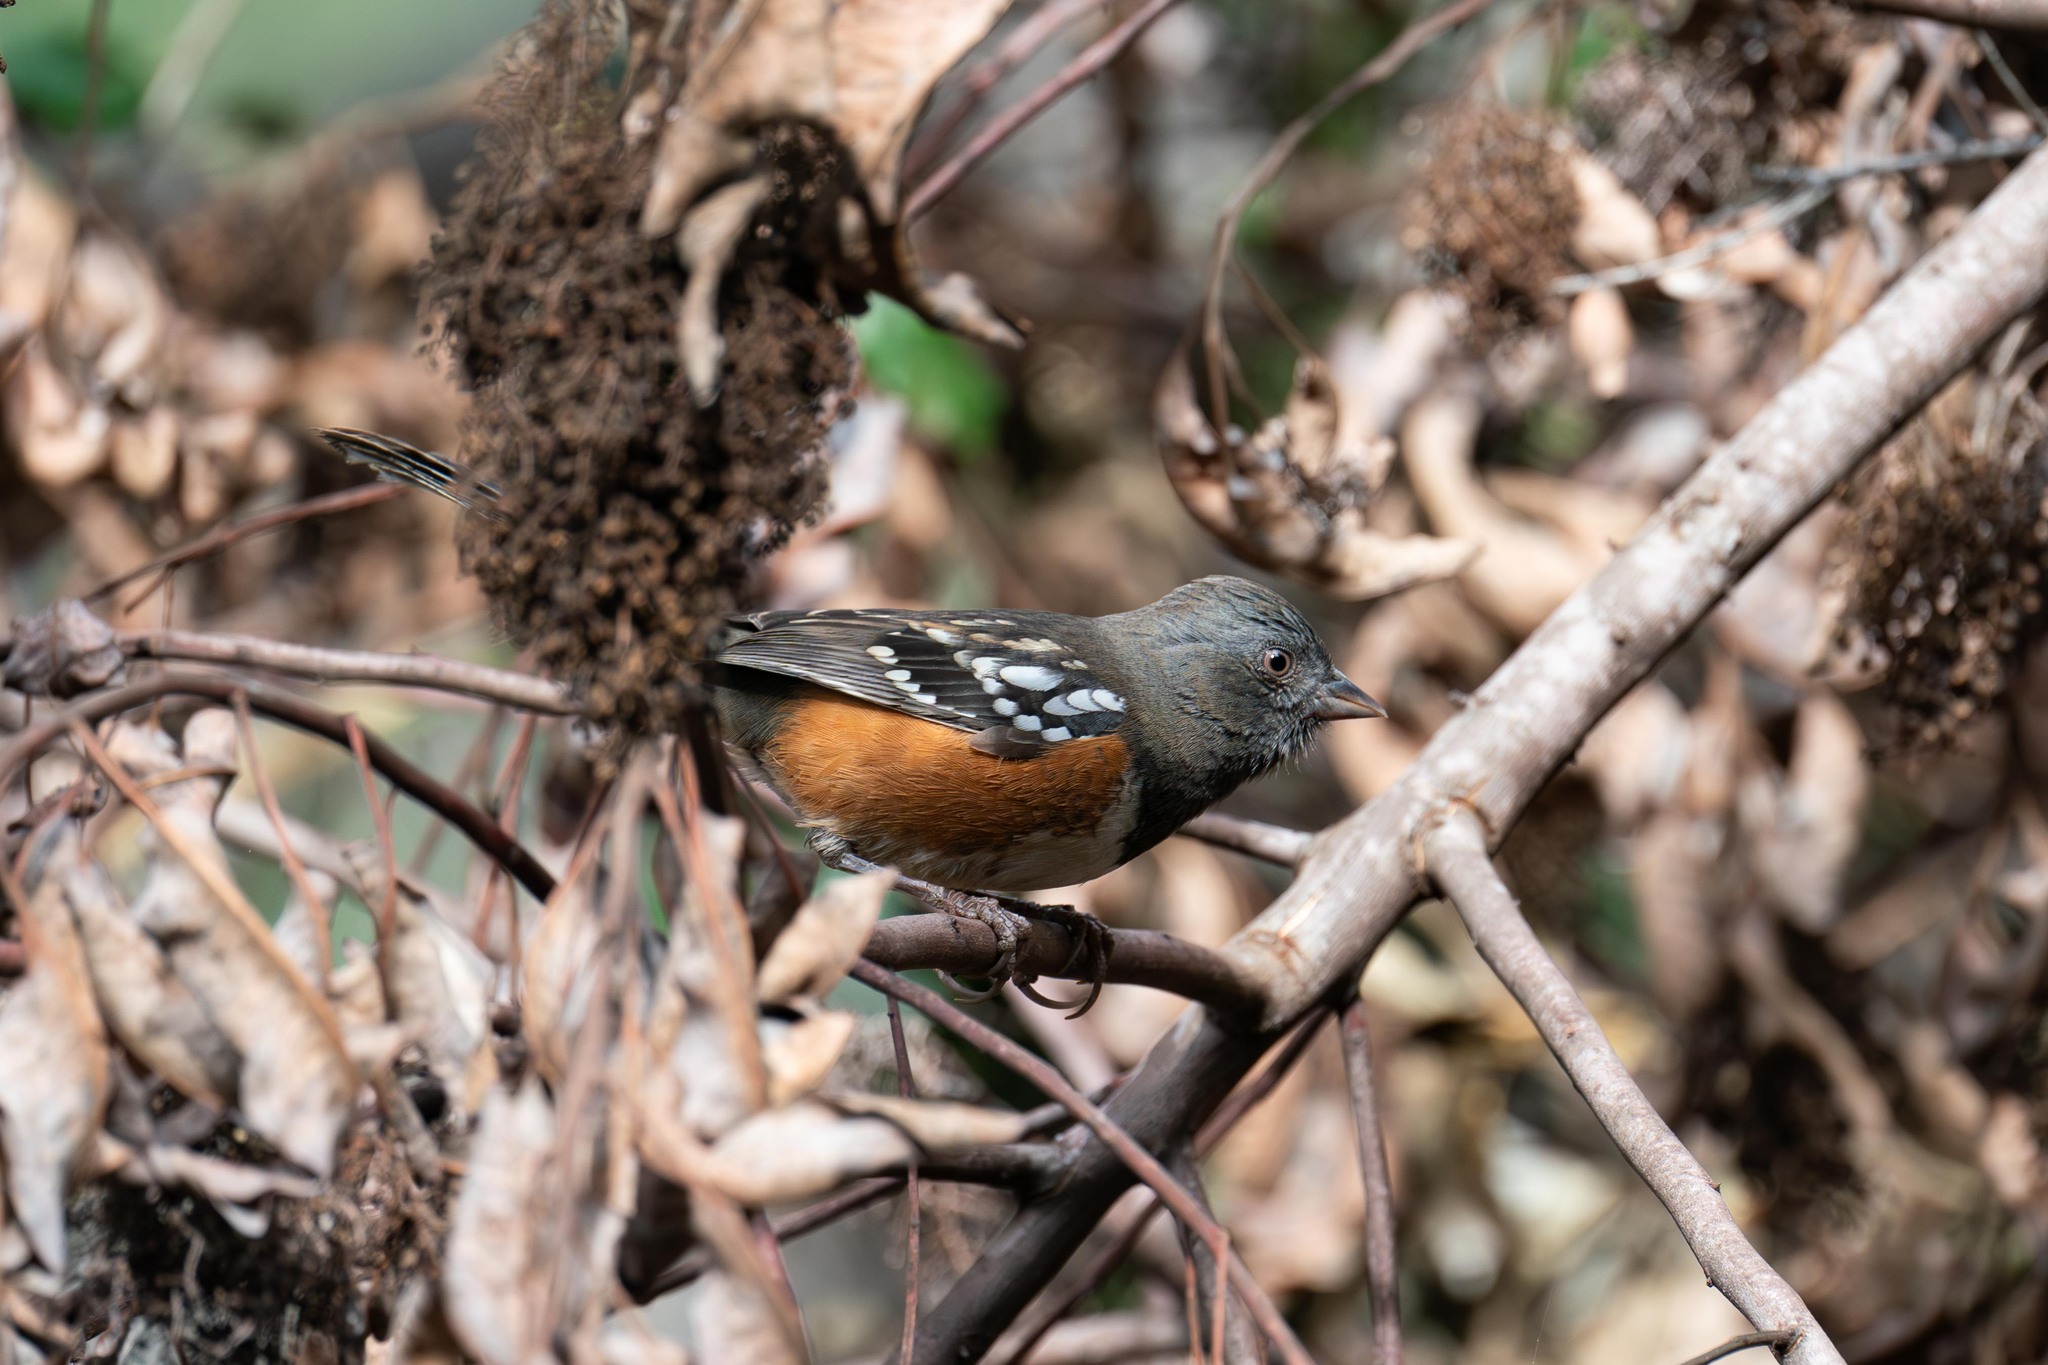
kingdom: Animalia
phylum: Chordata
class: Aves
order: Passeriformes
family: Passerellidae
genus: Pipilo
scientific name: Pipilo maculatus
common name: Spotted towhee
